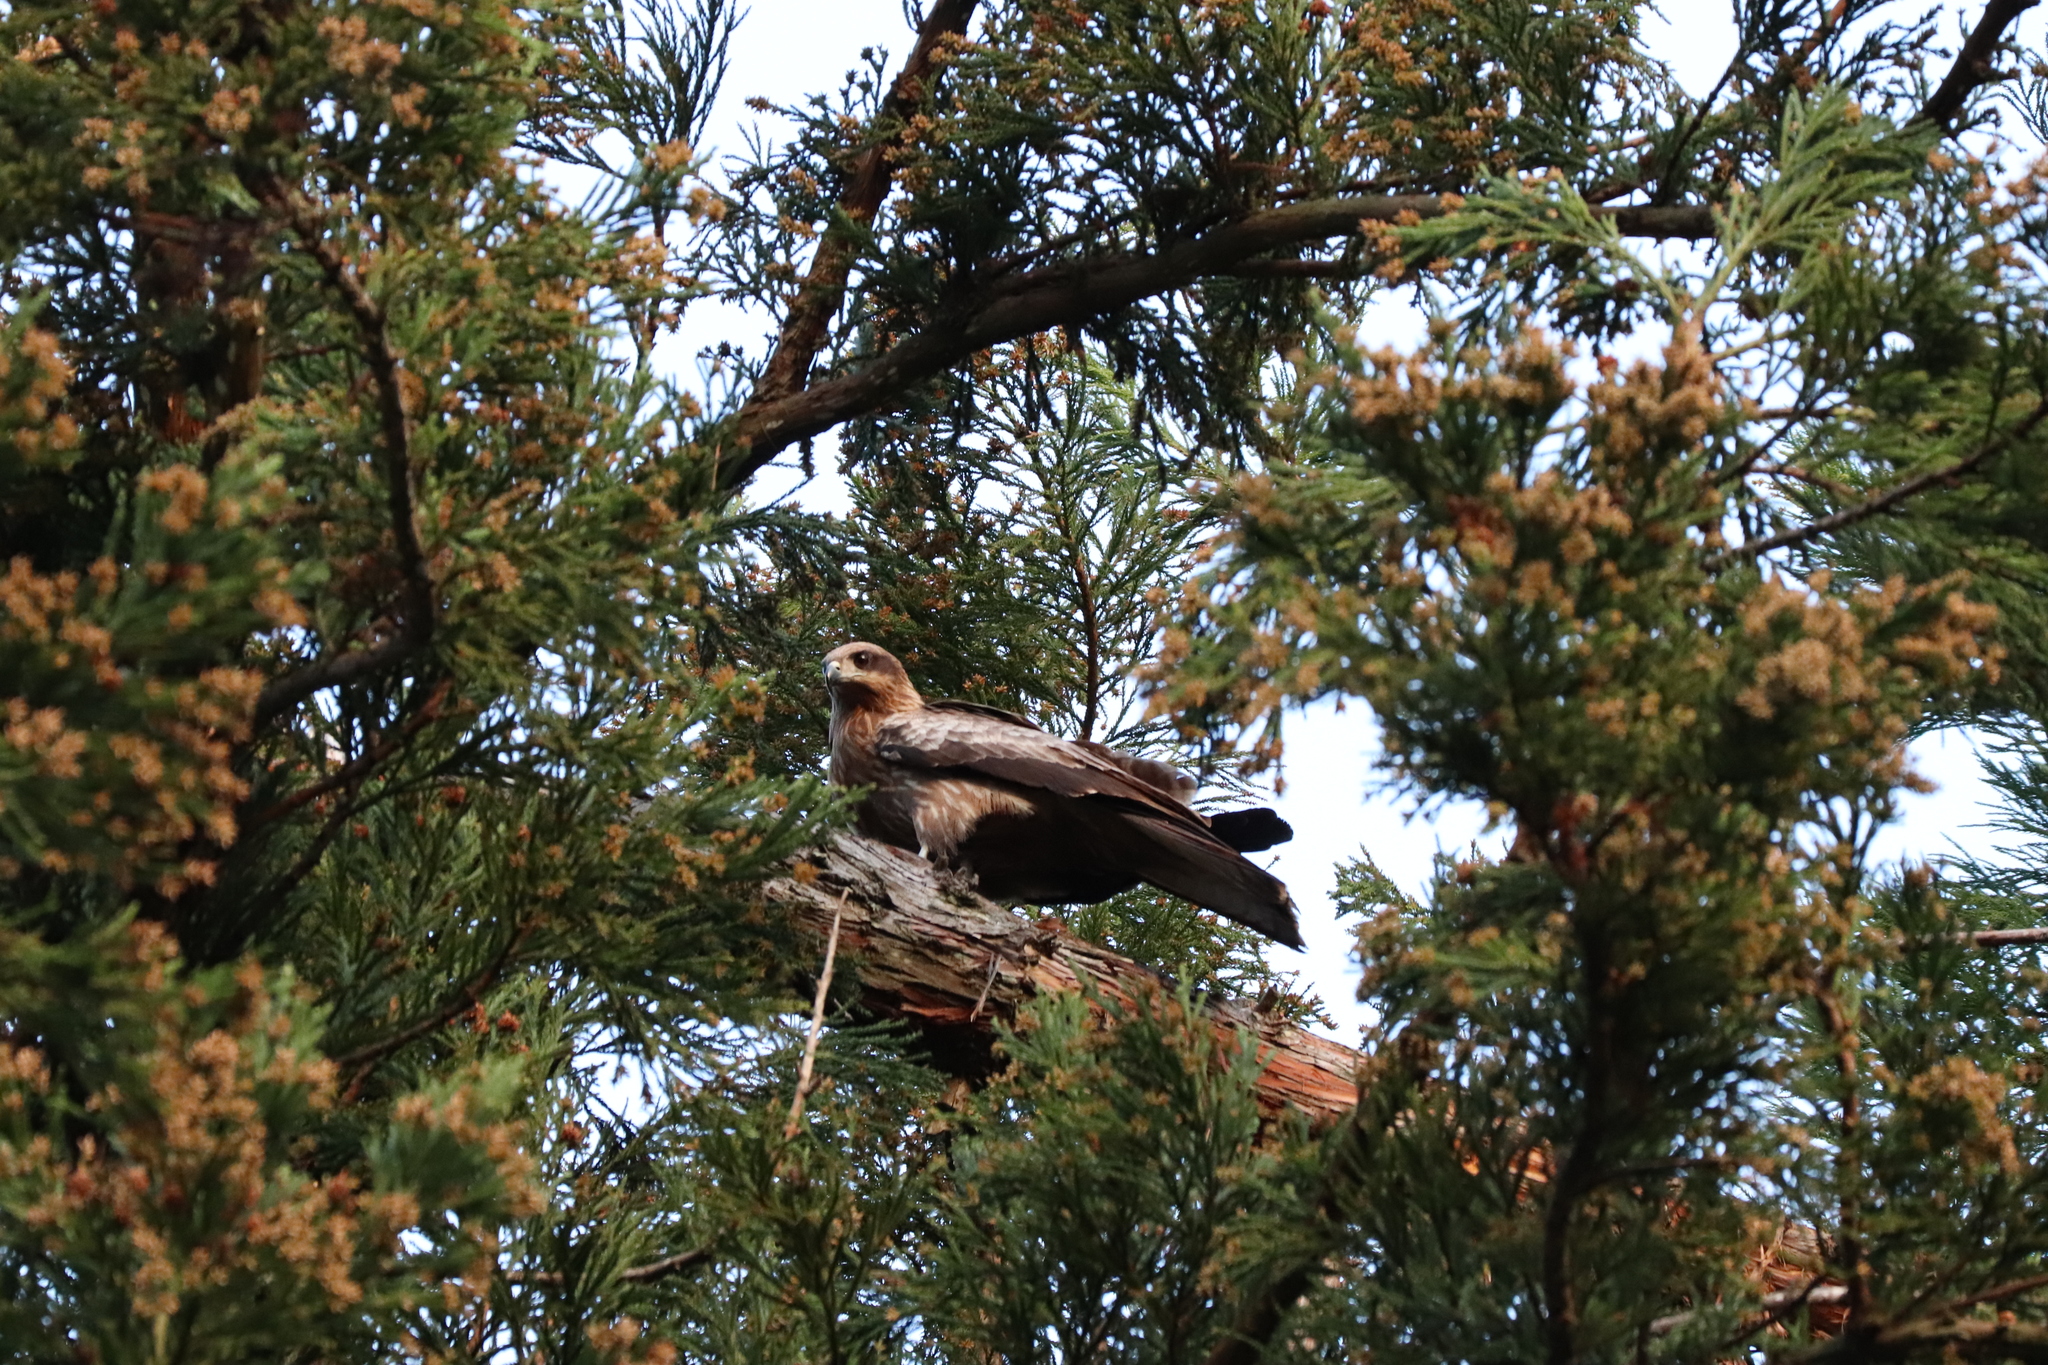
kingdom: Animalia
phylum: Chordata
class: Aves
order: Accipitriformes
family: Accipitridae
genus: Milvus
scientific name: Milvus migrans
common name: Black kite
